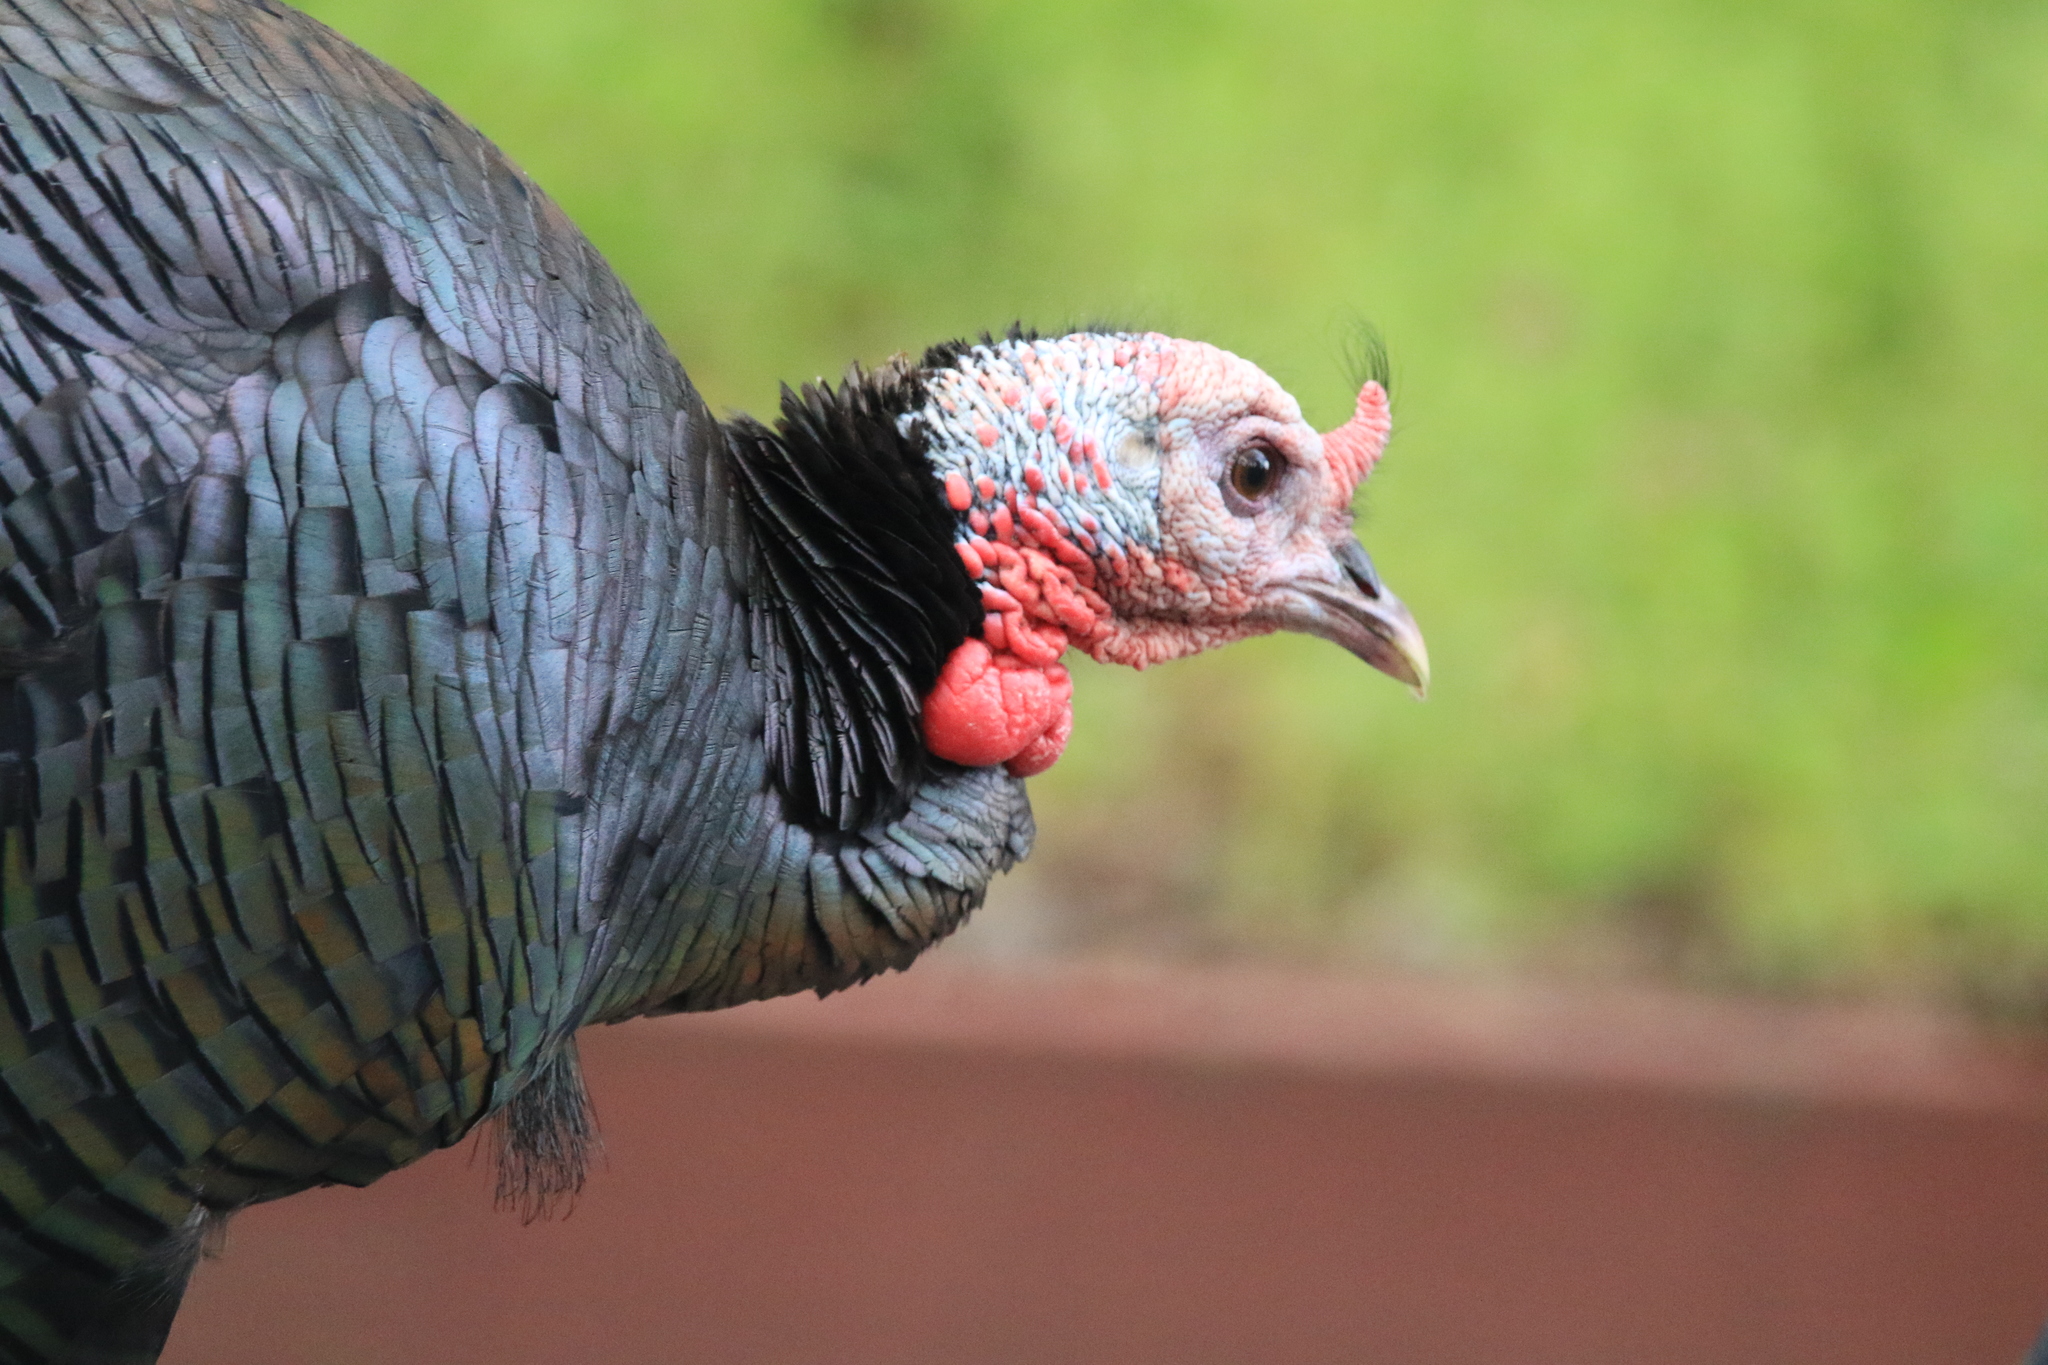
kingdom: Animalia
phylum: Chordata
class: Aves
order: Galliformes
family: Phasianidae
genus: Meleagris
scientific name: Meleagris gallopavo
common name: Wild turkey
